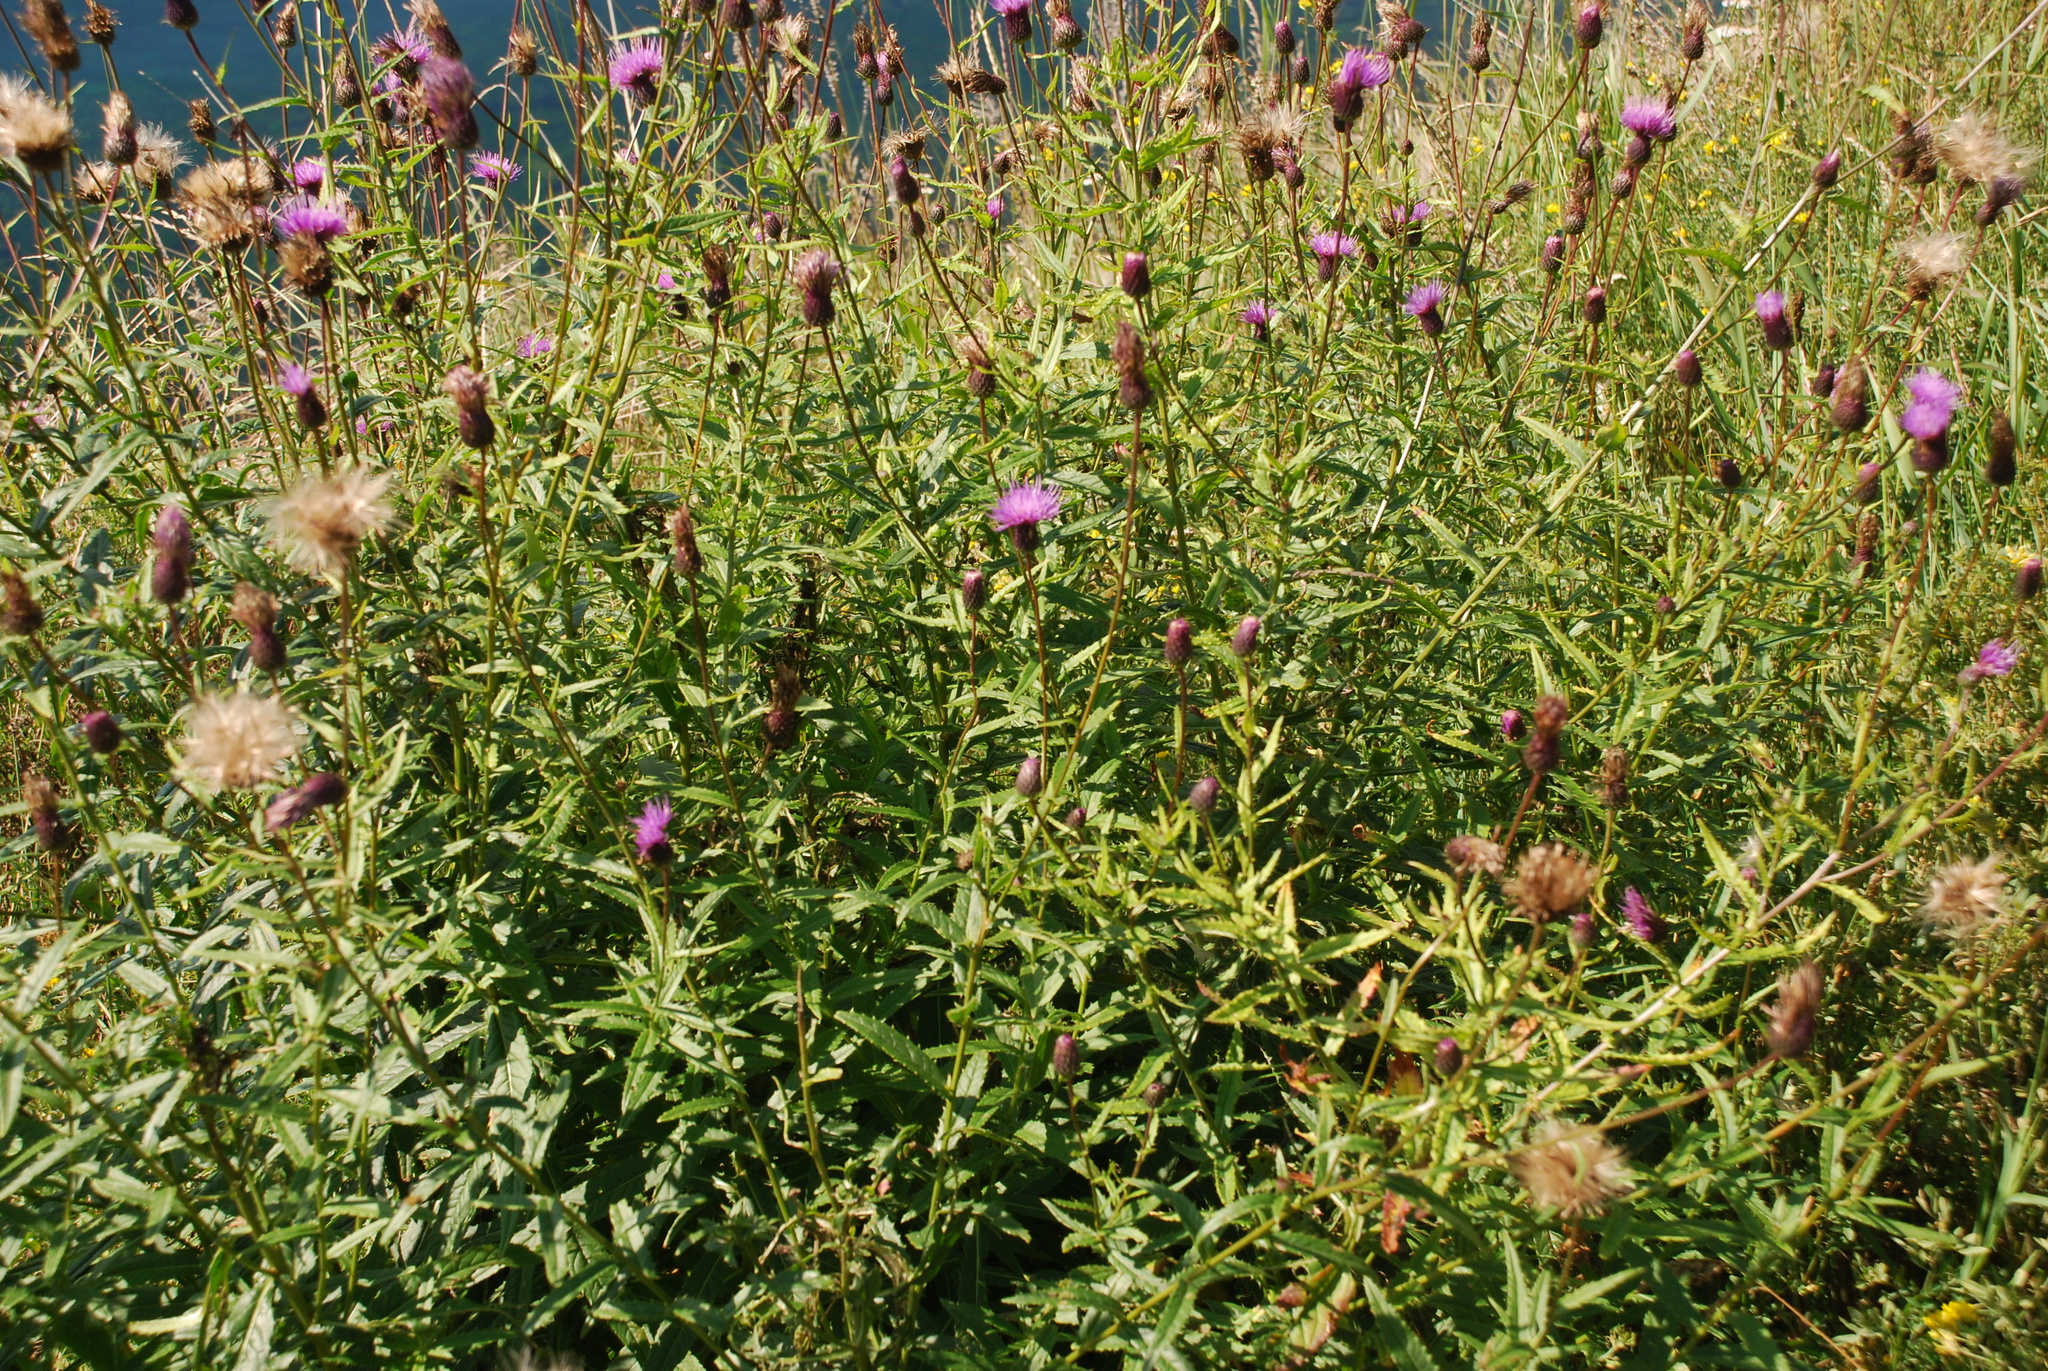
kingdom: Plantae
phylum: Tracheophyta
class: Magnoliopsida
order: Asterales
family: Asteraceae
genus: Cirsium
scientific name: Cirsium serratuloides
